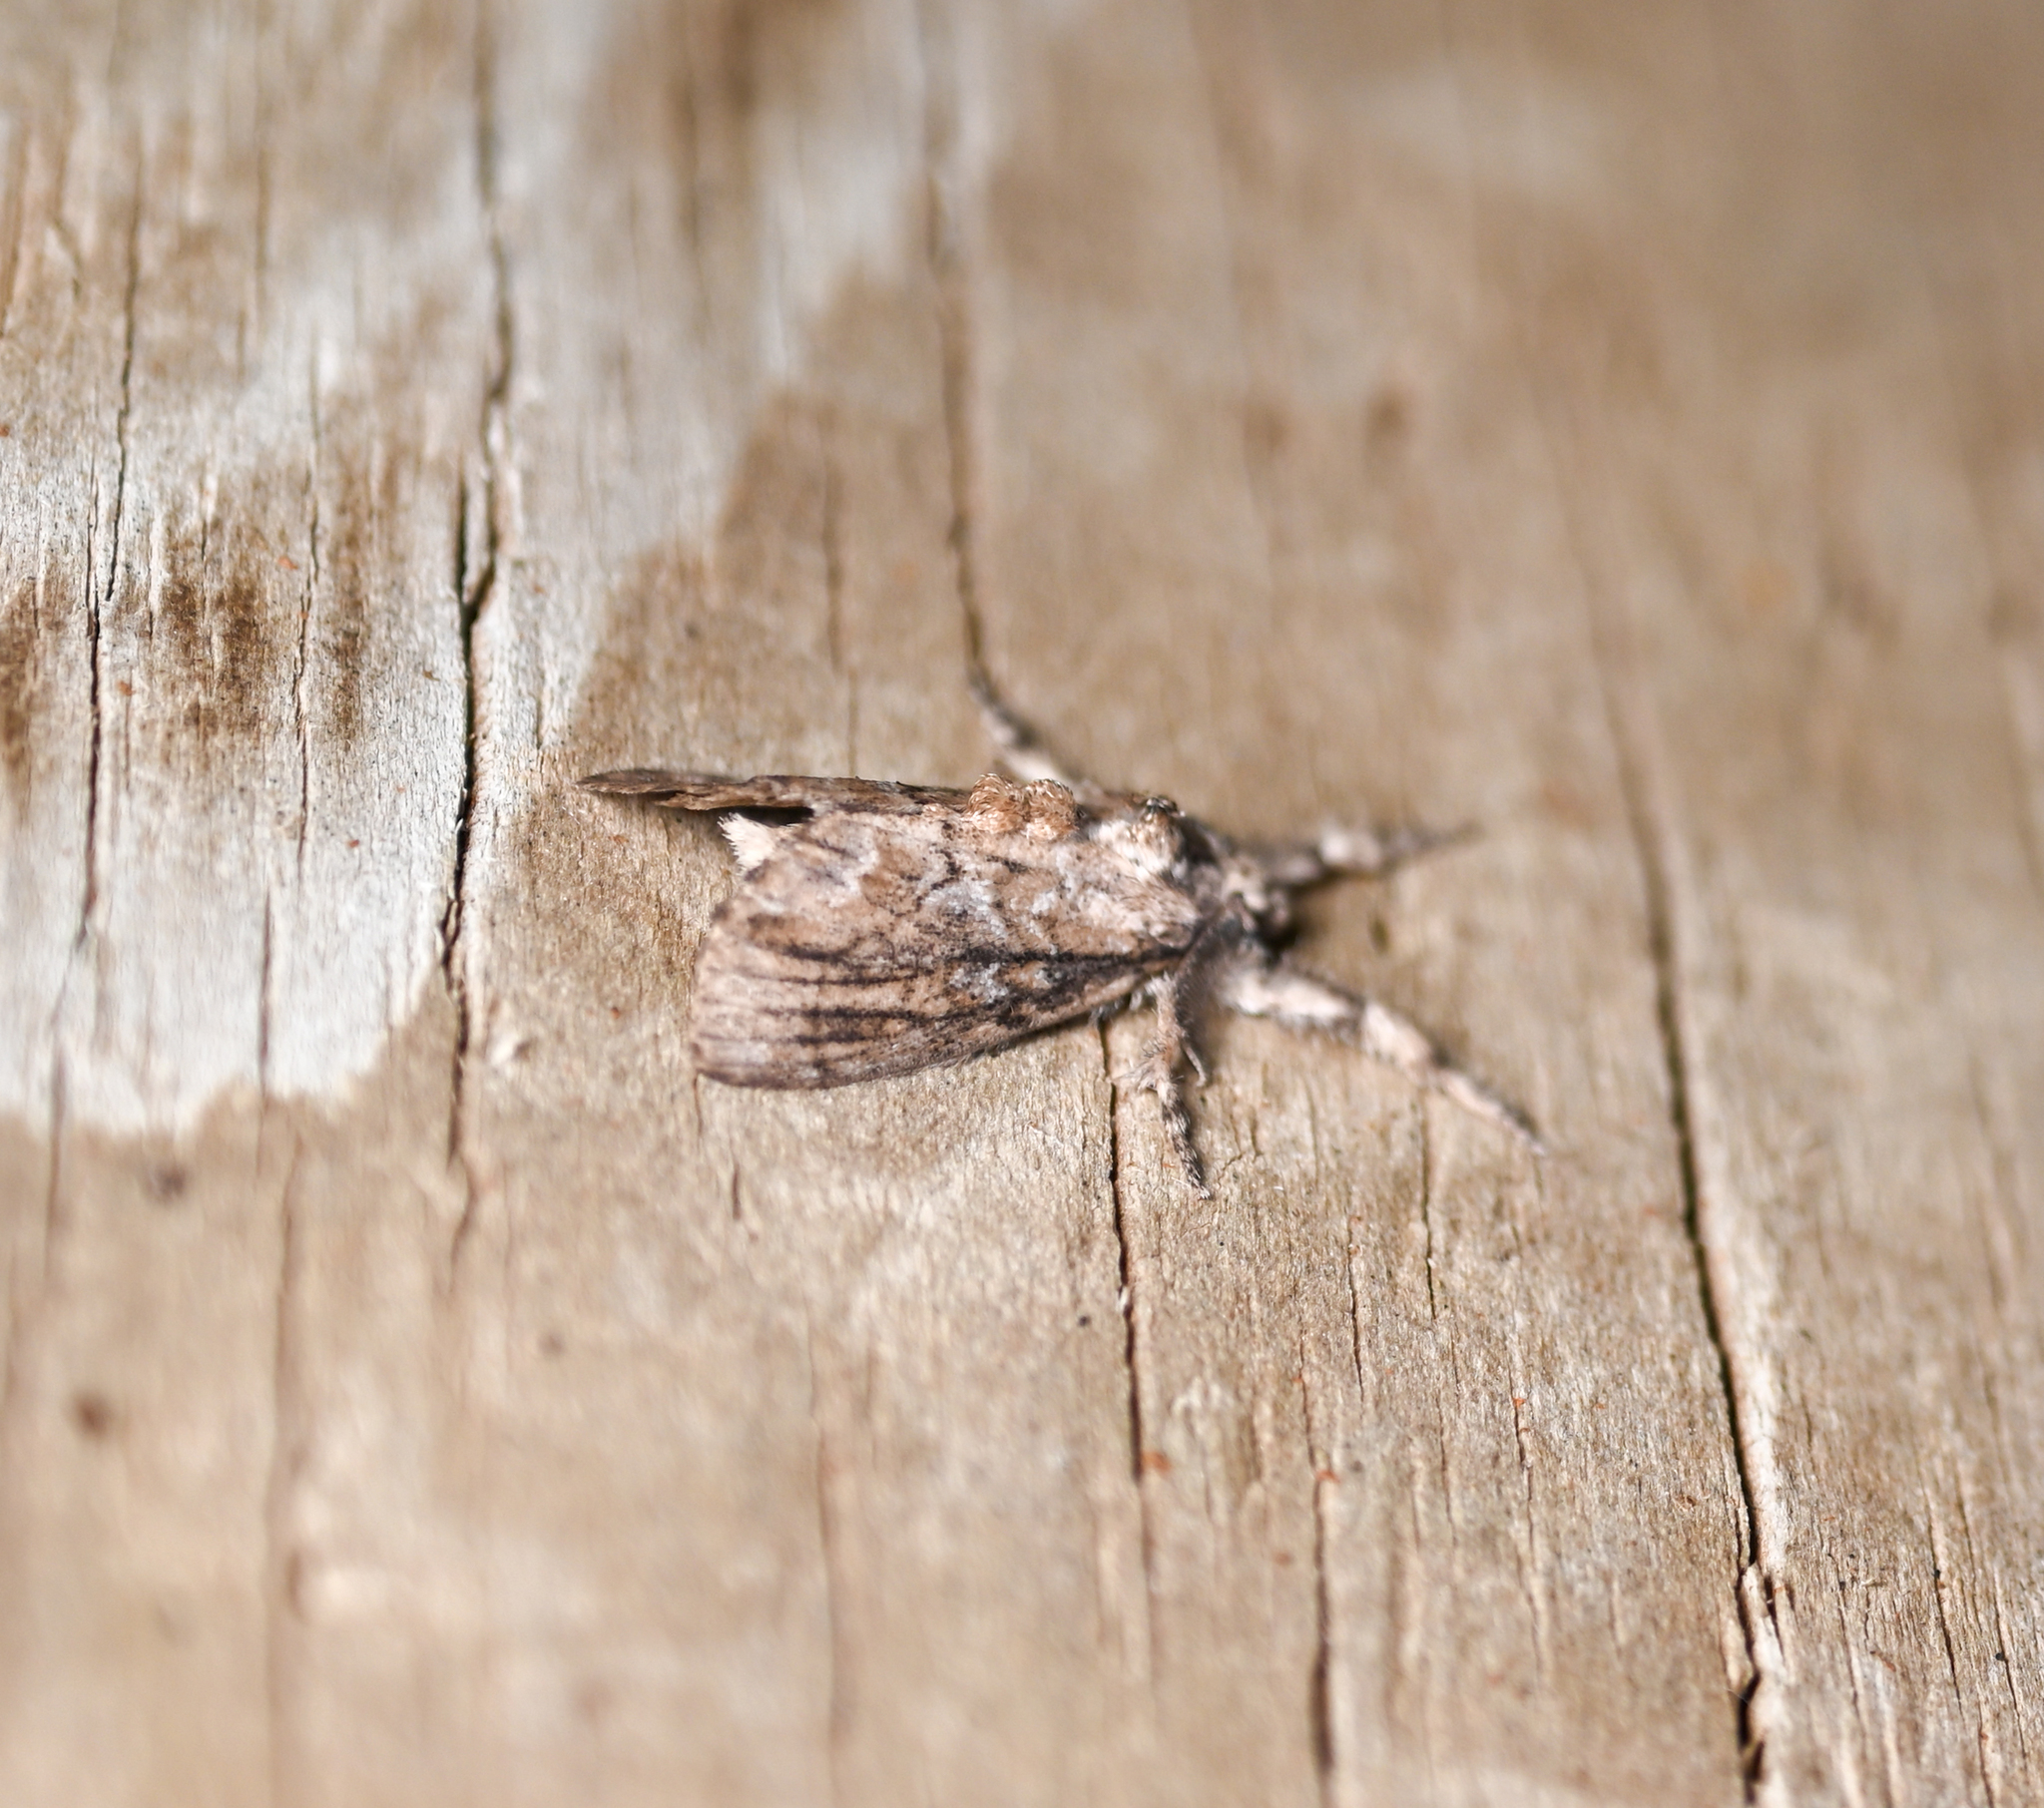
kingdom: Animalia
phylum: Arthropoda
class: Insecta
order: Lepidoptera
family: Erebidae
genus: Dasychira
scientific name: Dasychira atrivenosa
